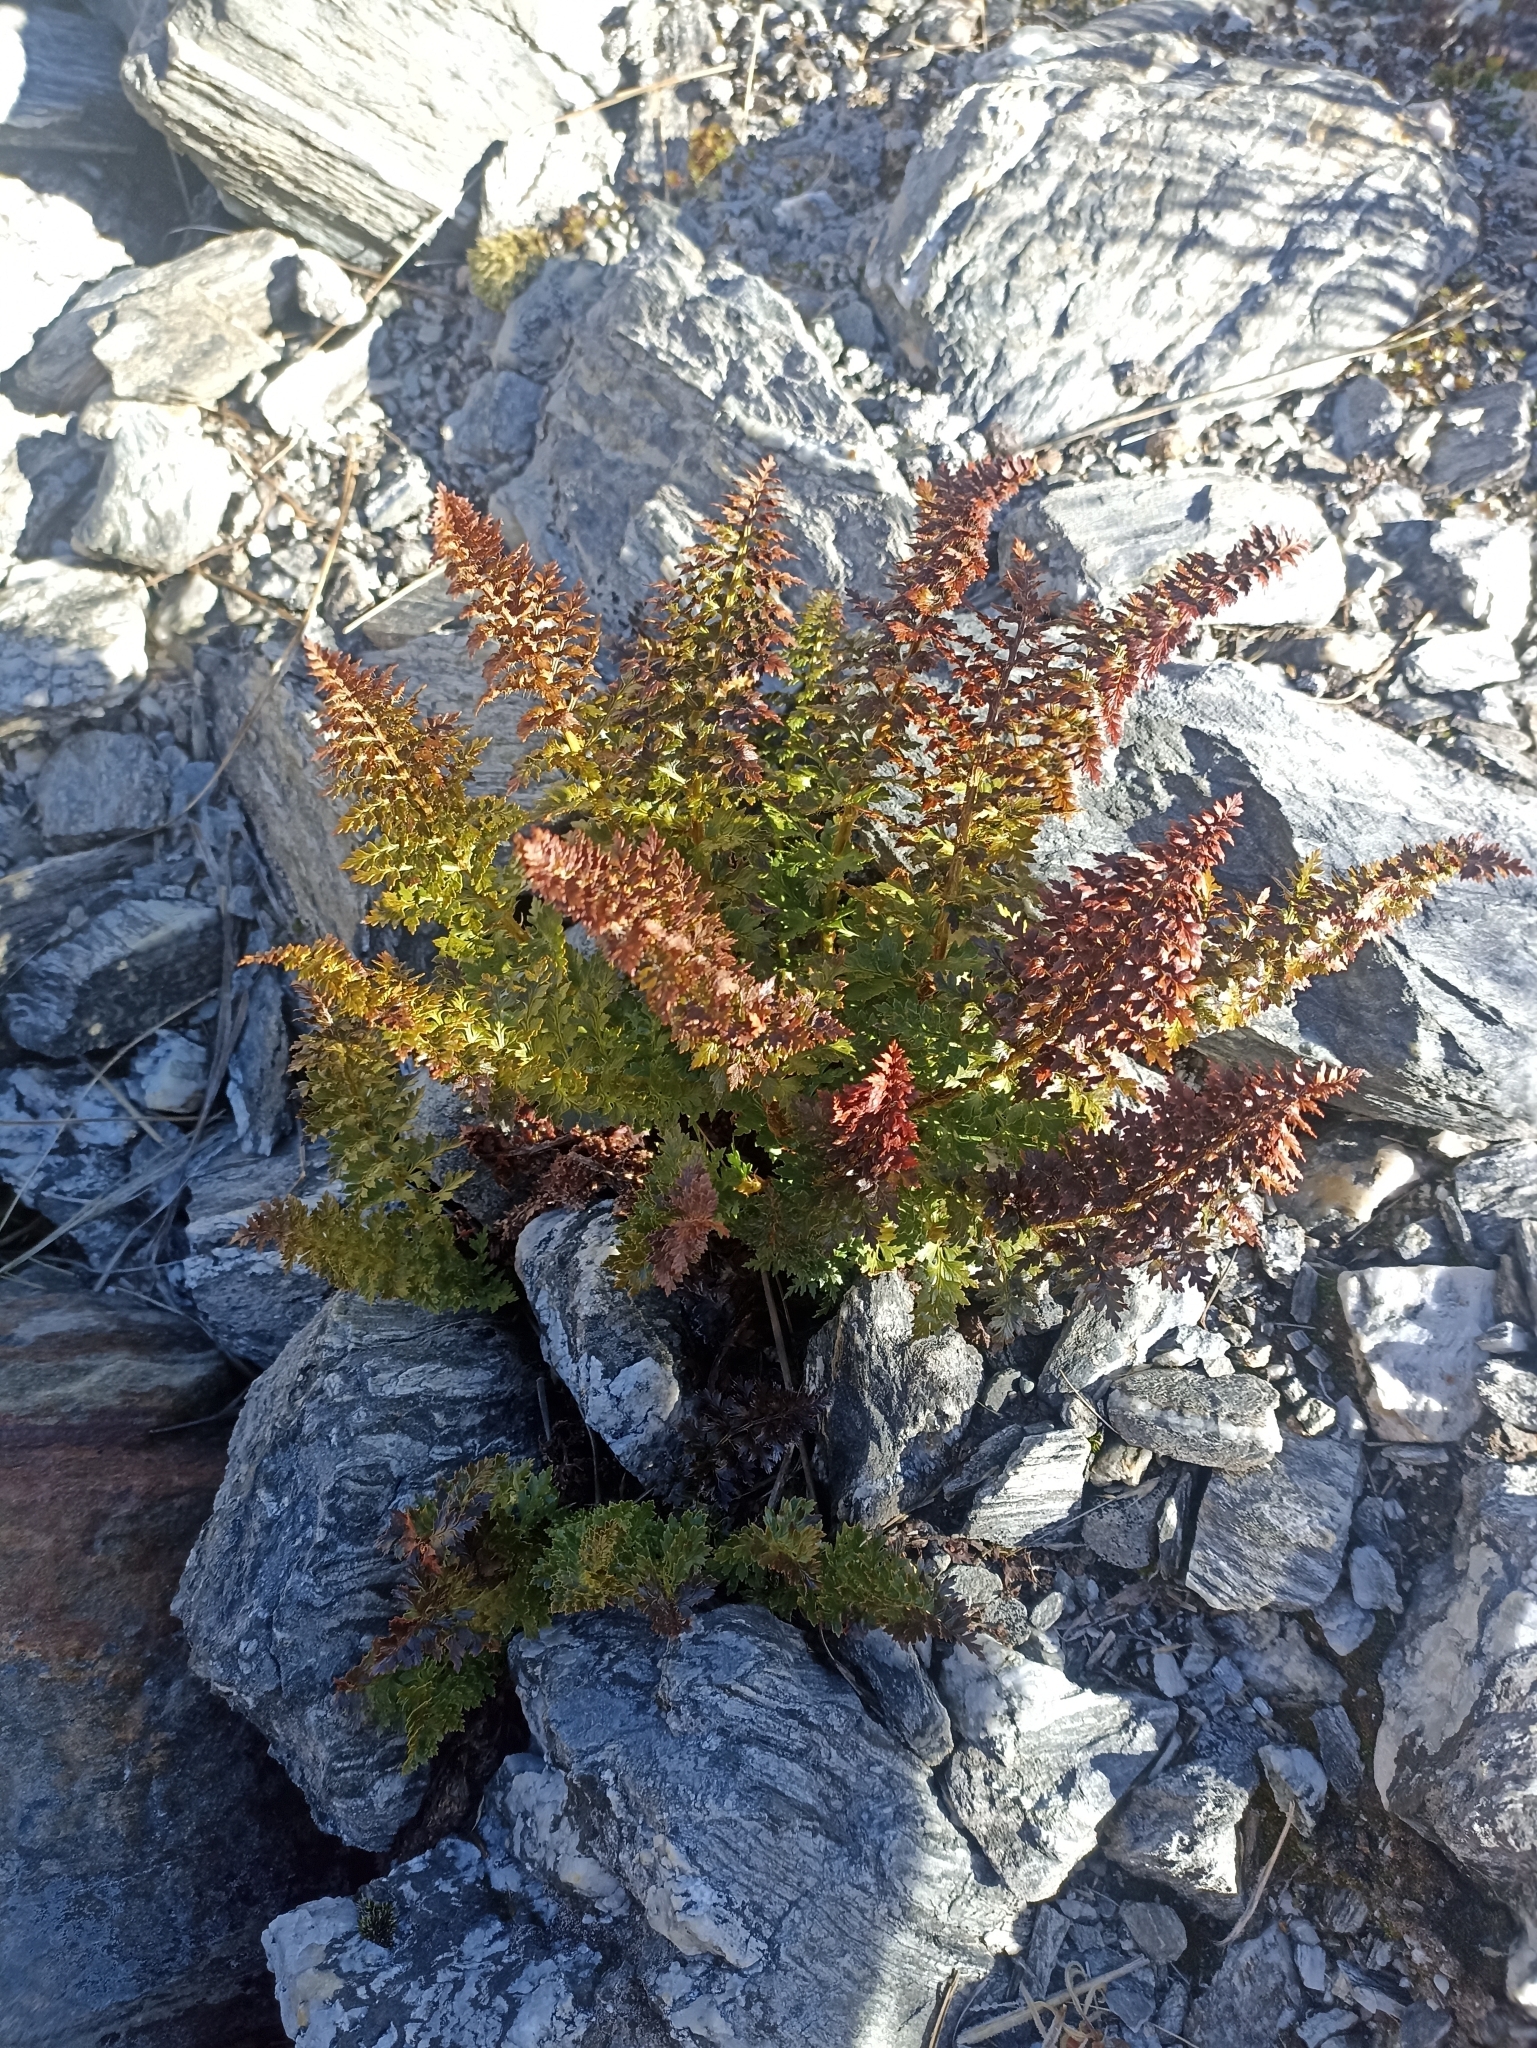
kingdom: Plantae
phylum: Tracheophyta
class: Polypodiopsida
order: Polypodiales
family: Dryopteridaceae
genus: Polystichum
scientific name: Polystichum cystostegia
